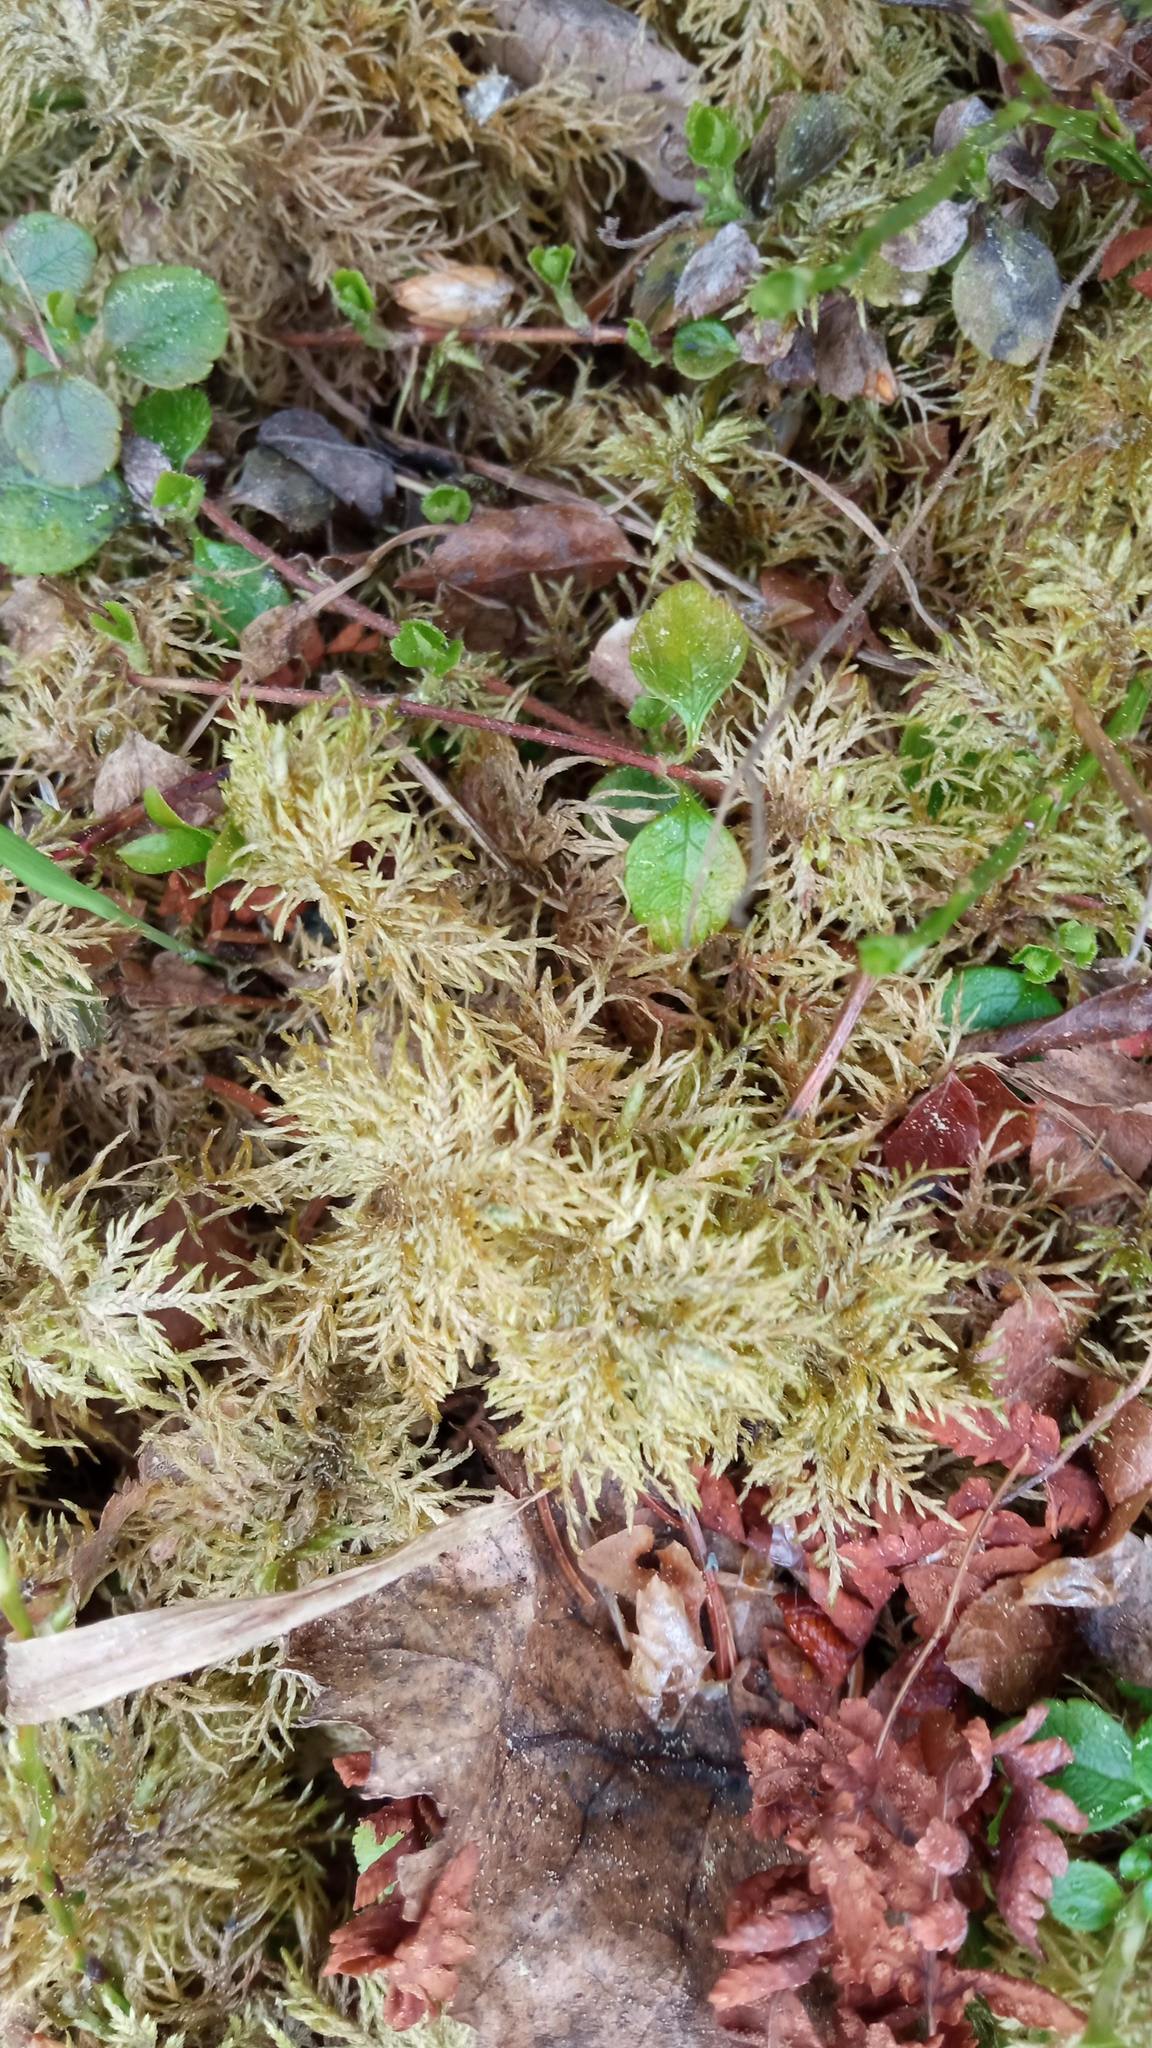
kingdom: Plantae
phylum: Bryophyta
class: Bryopsida
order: Hypnales
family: Hylocomiaceae
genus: Hylocomium
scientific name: Hylocomium splendens
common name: Stairstep moss
